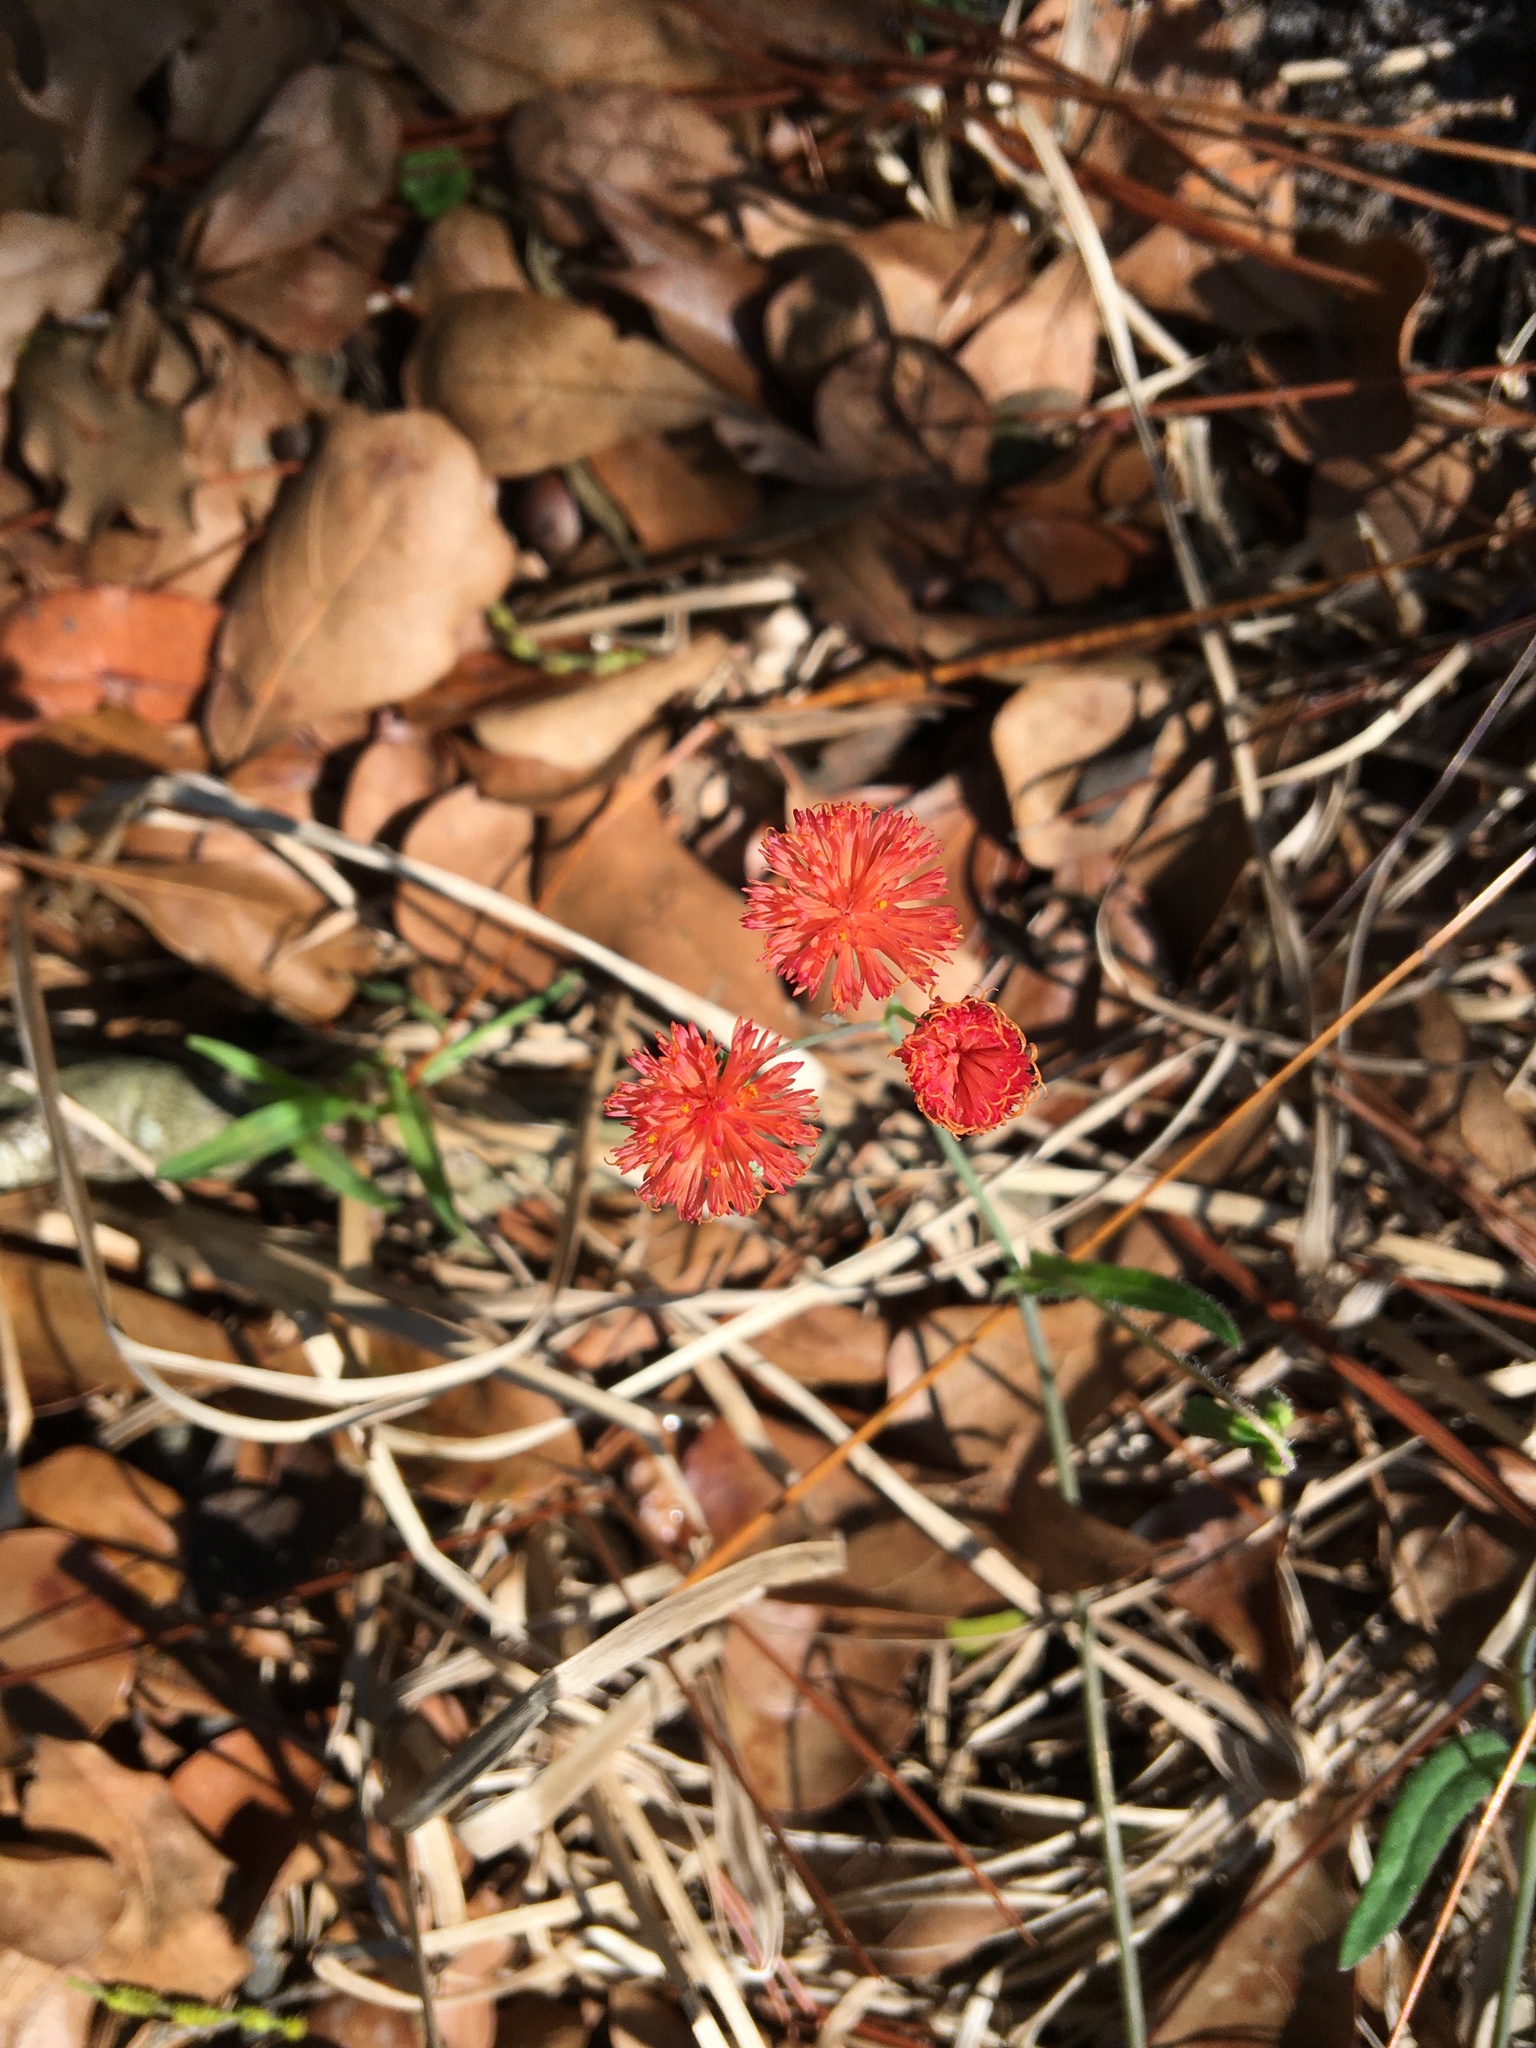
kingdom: Plantae
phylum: Tracheophyta
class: Magnoliopsida
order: Asterales
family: Asteraceae
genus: Emilia
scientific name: Emilia fosbergii
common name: Florida tasselflower
